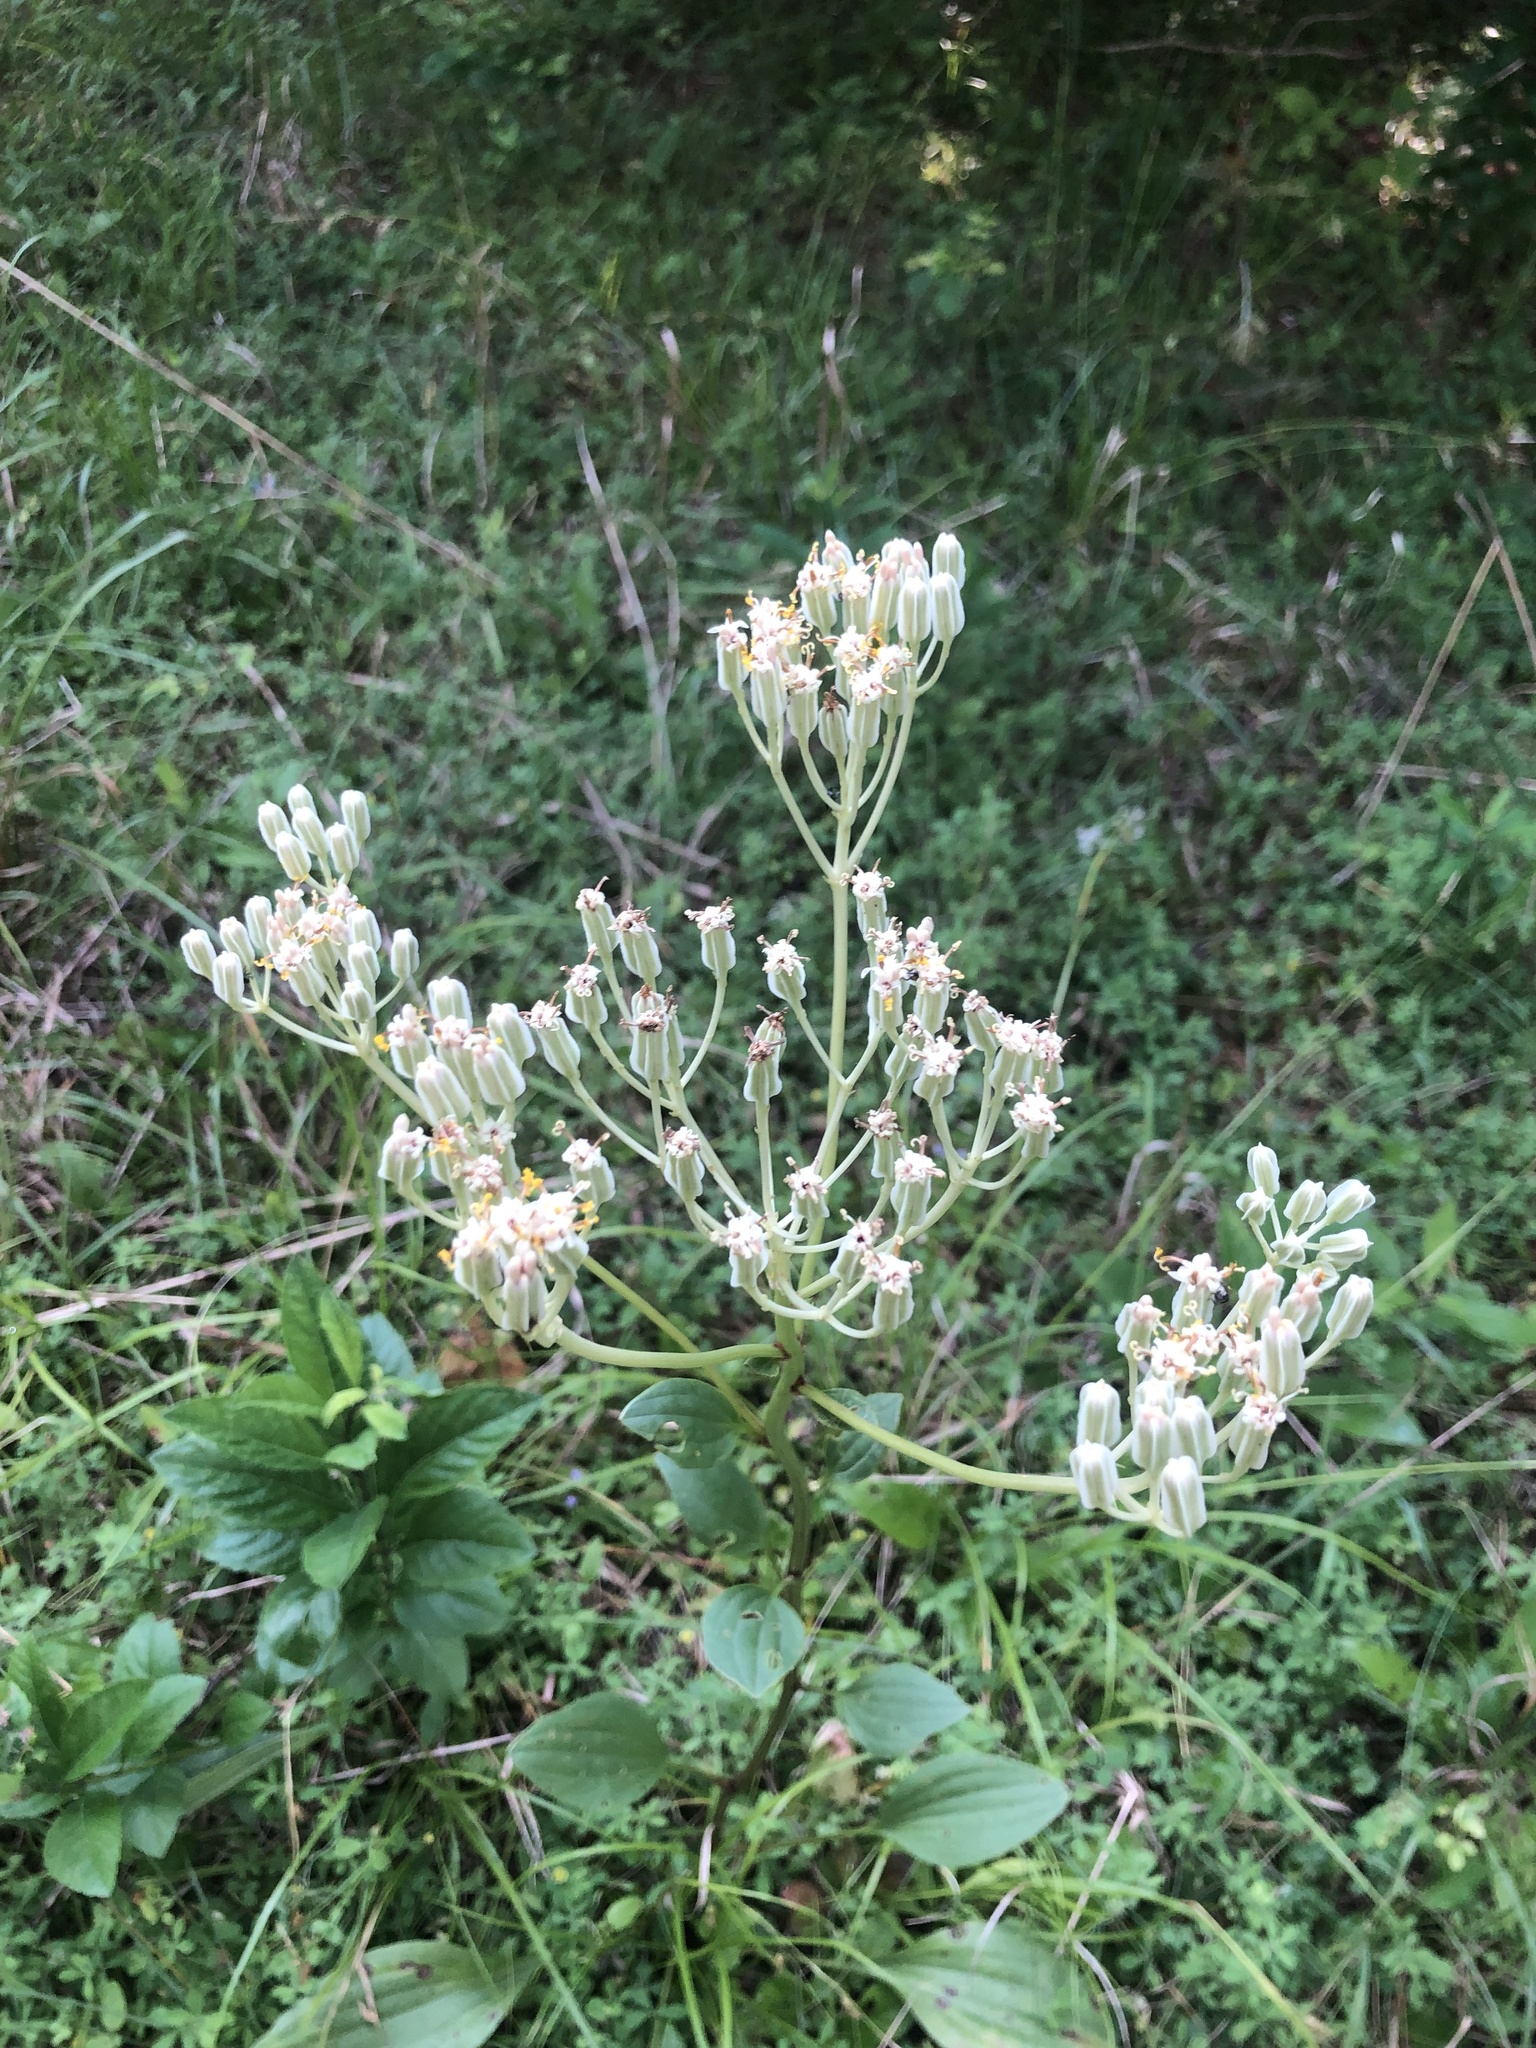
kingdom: Plantae
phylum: Tracheophyta
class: Magnoliopsida
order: Asterales
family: Asteraceae
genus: Arnoglossum
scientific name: Arnoglossum plantagineum
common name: Groove-stemmed indian-plantain
